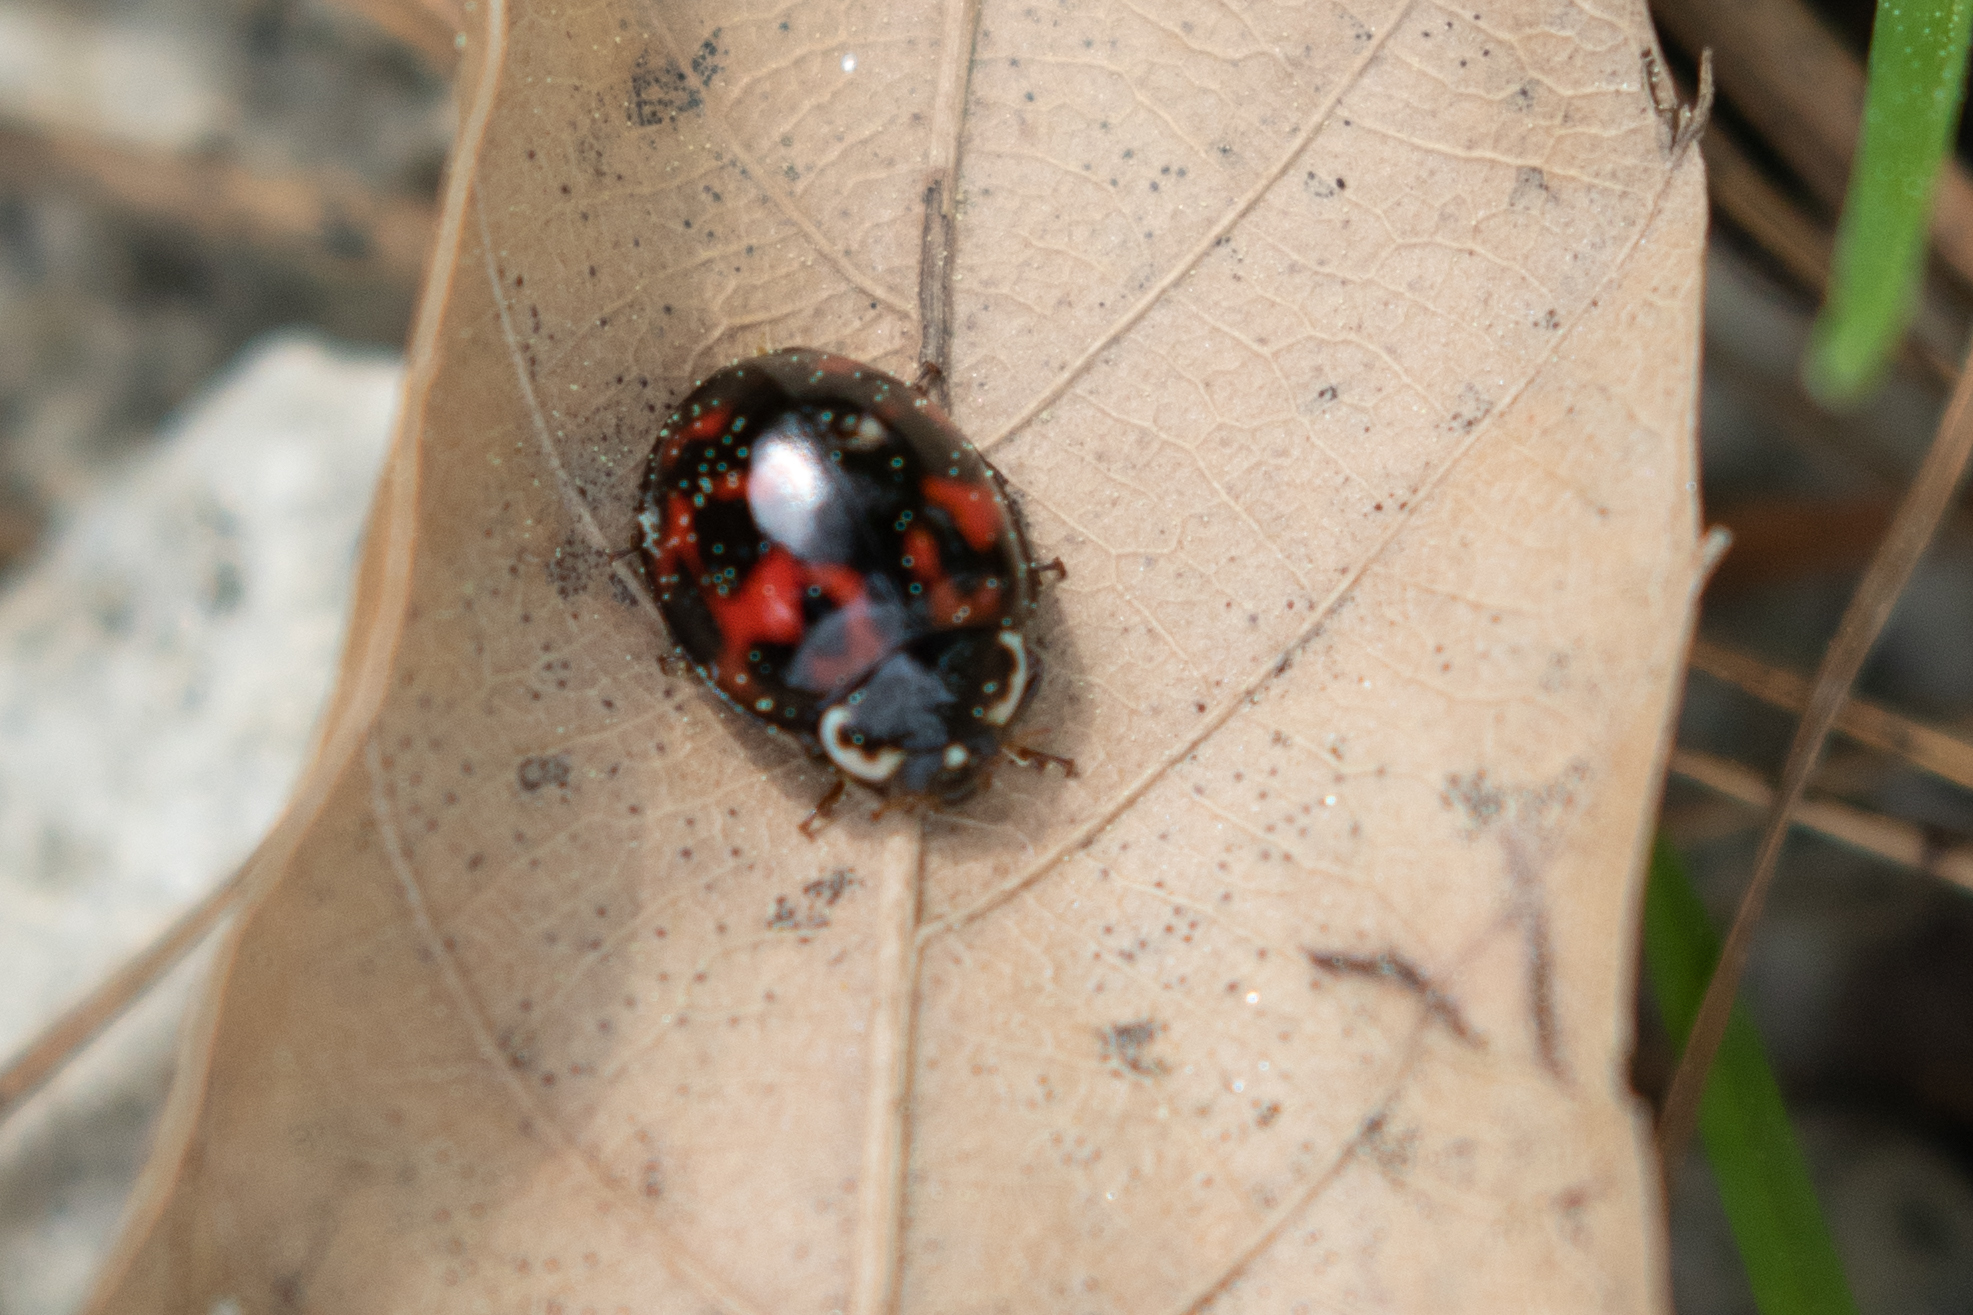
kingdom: Animalia
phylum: Arthropoda
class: Insecta
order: Coleoptera
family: Coccinellidae
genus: Harmonia
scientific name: Harmonia axyridis
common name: Harlequin ladybird
